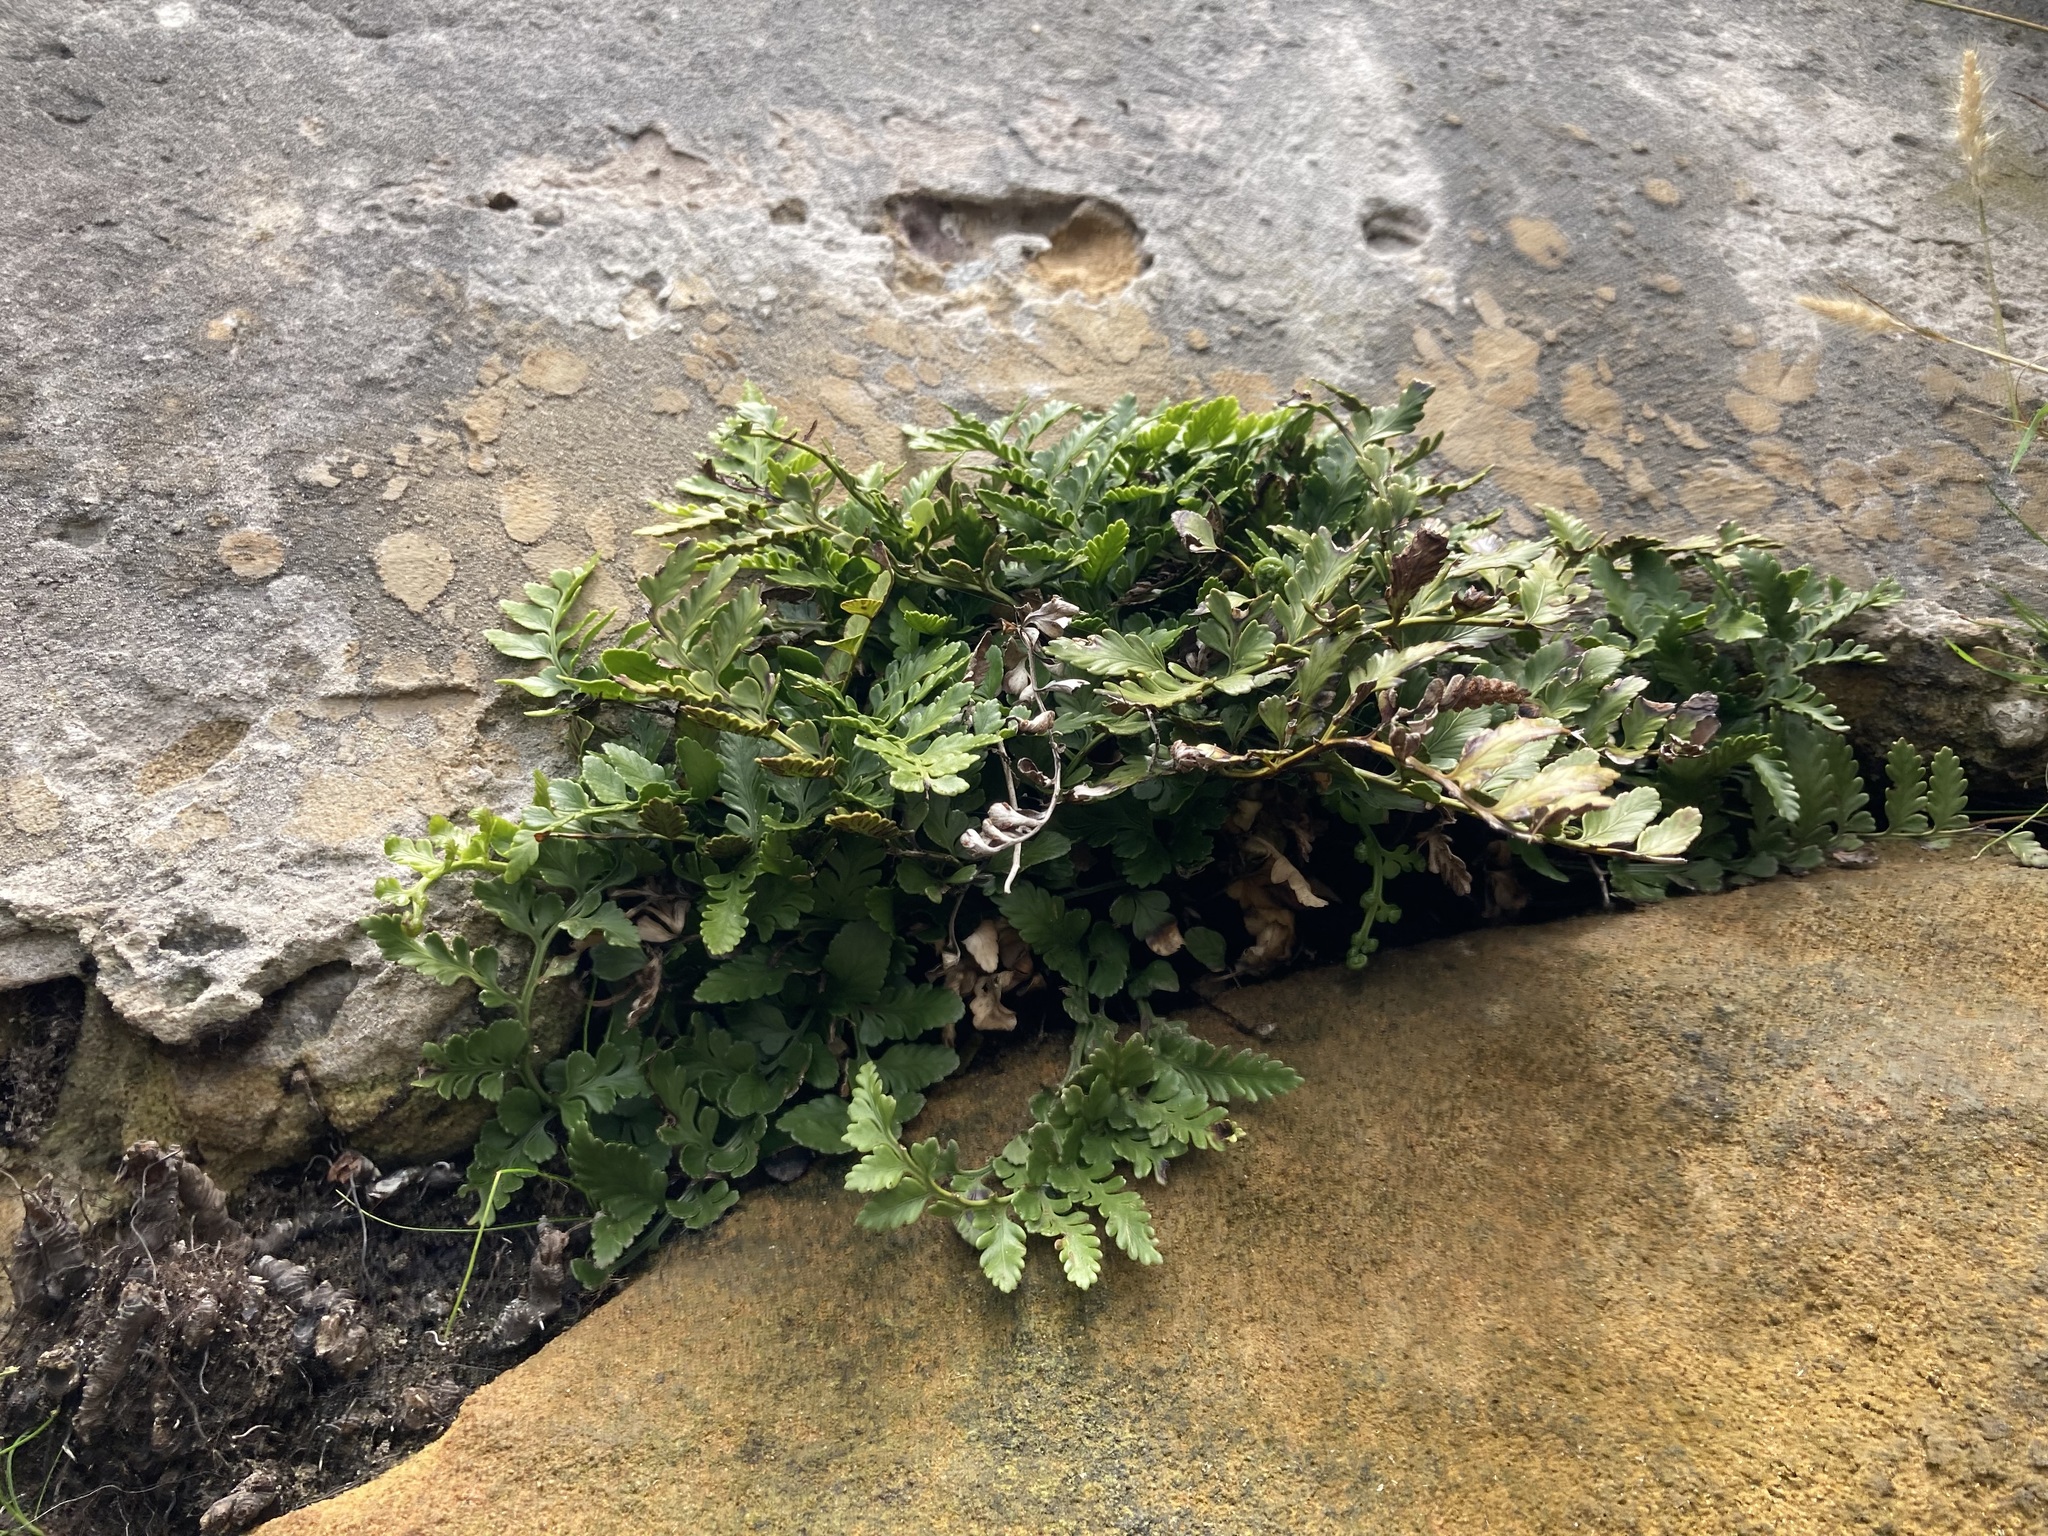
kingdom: Plantae
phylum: Tracheophyta
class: Polypodiopsida
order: Polypodiales
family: Aspleniaceae
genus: Asplenium
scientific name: Asplenium difforme
